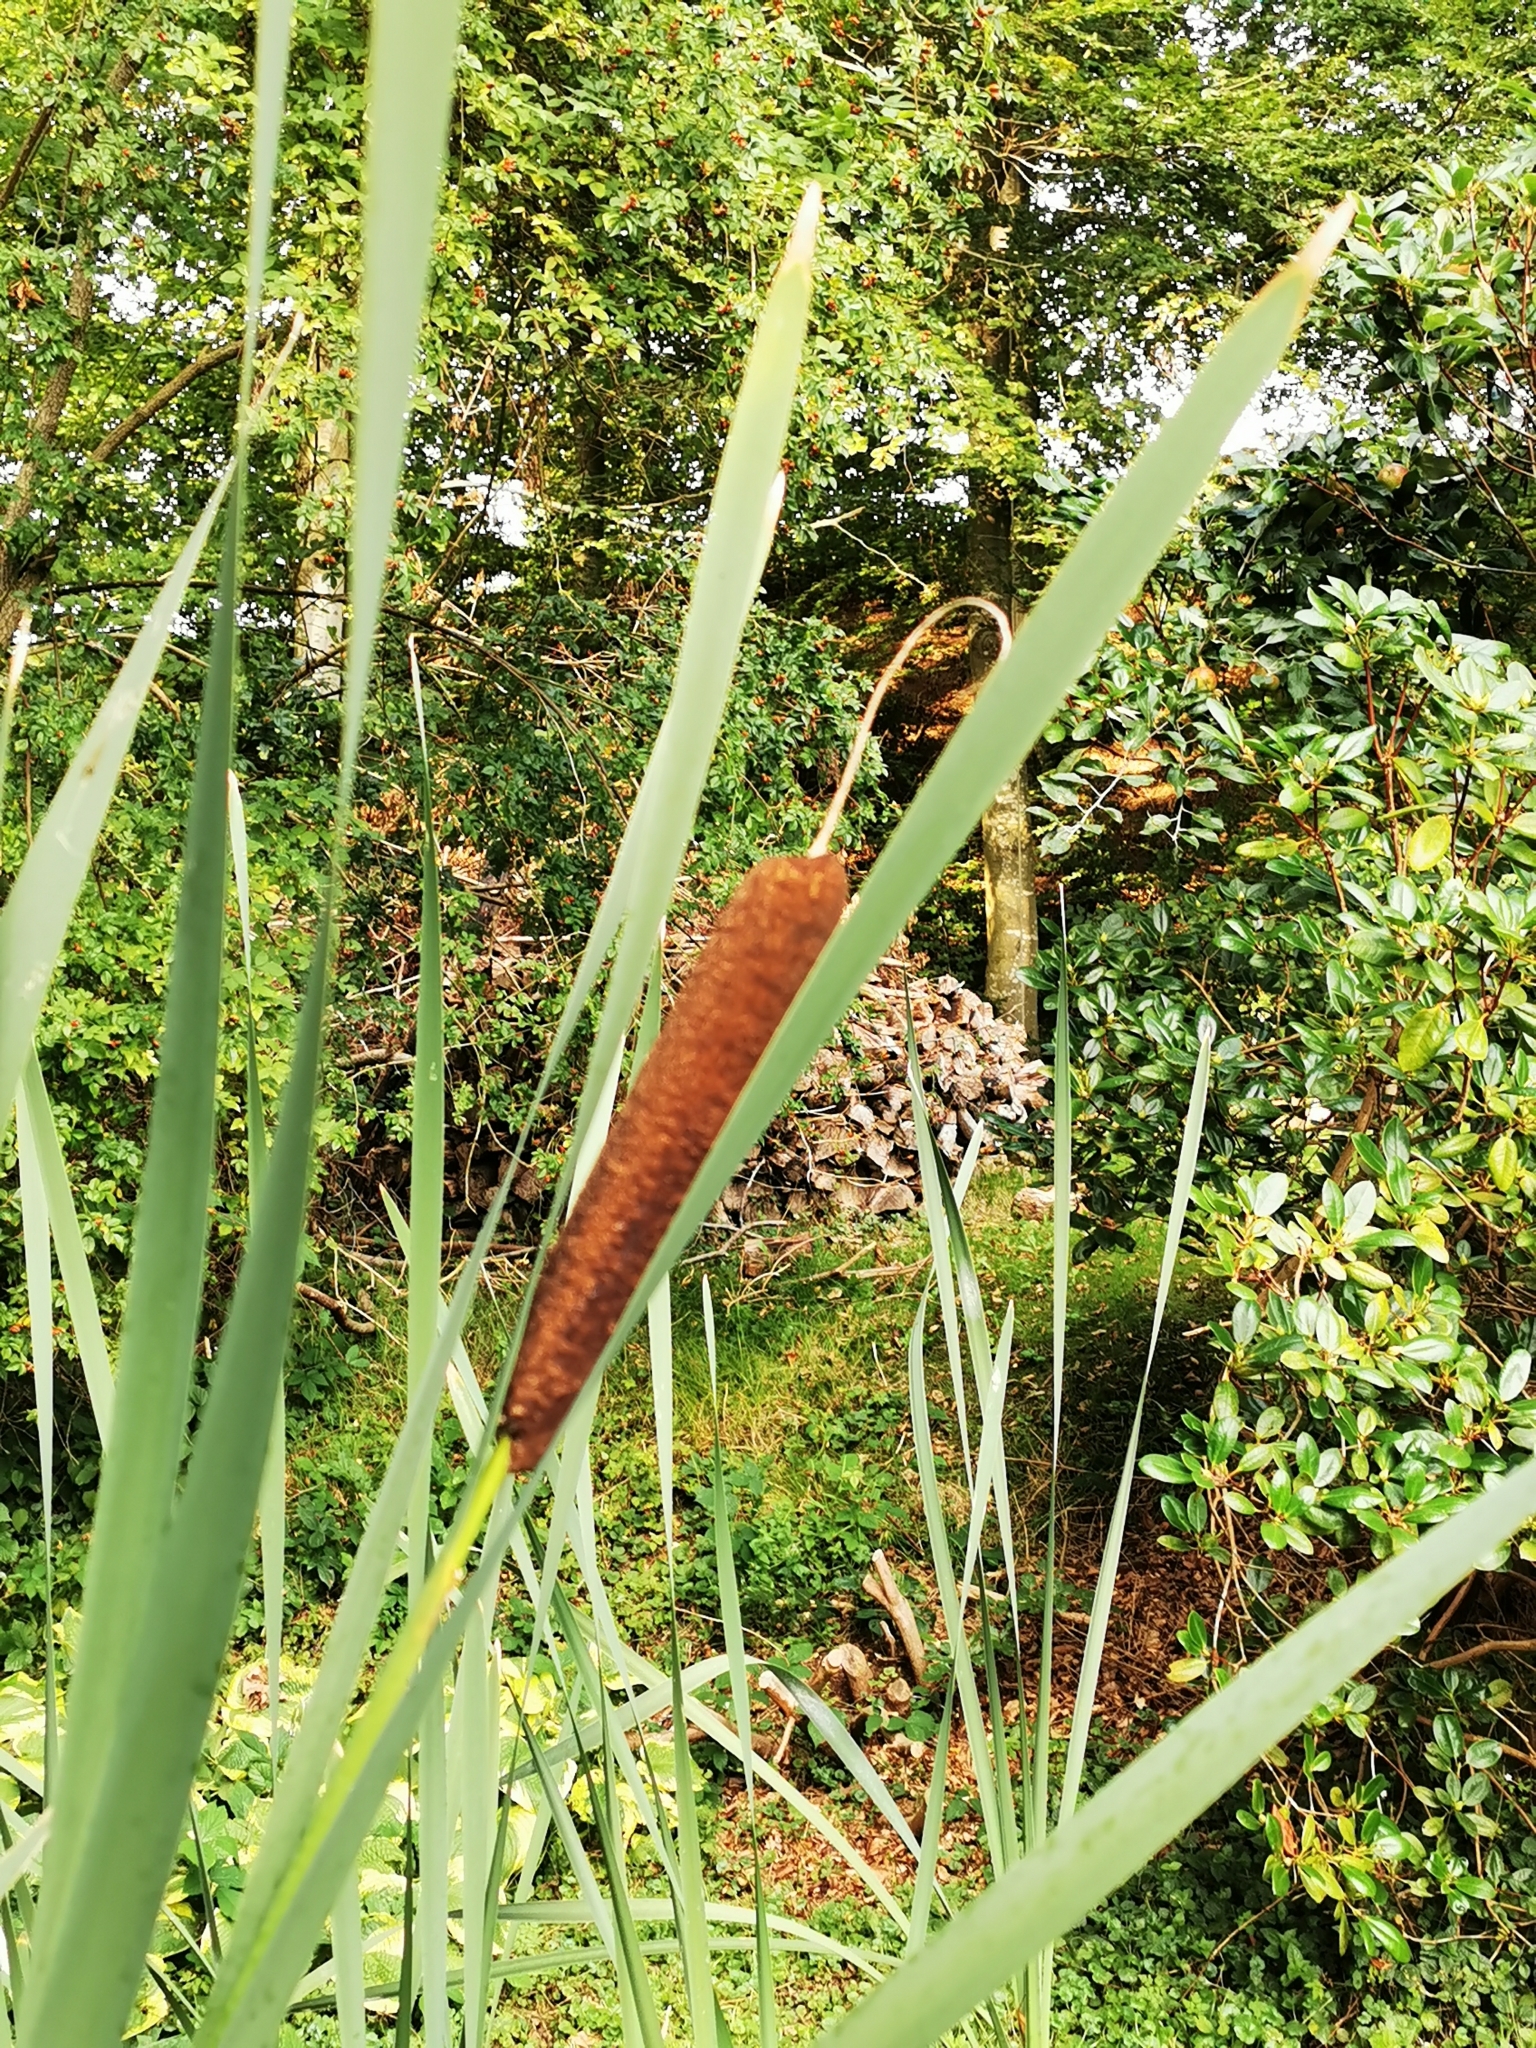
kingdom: Plantae
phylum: Tracheophyta
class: Liliopsida
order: Poales
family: Typhaceae
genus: Typha
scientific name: Typha latifolia
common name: Broadleaf cattail
